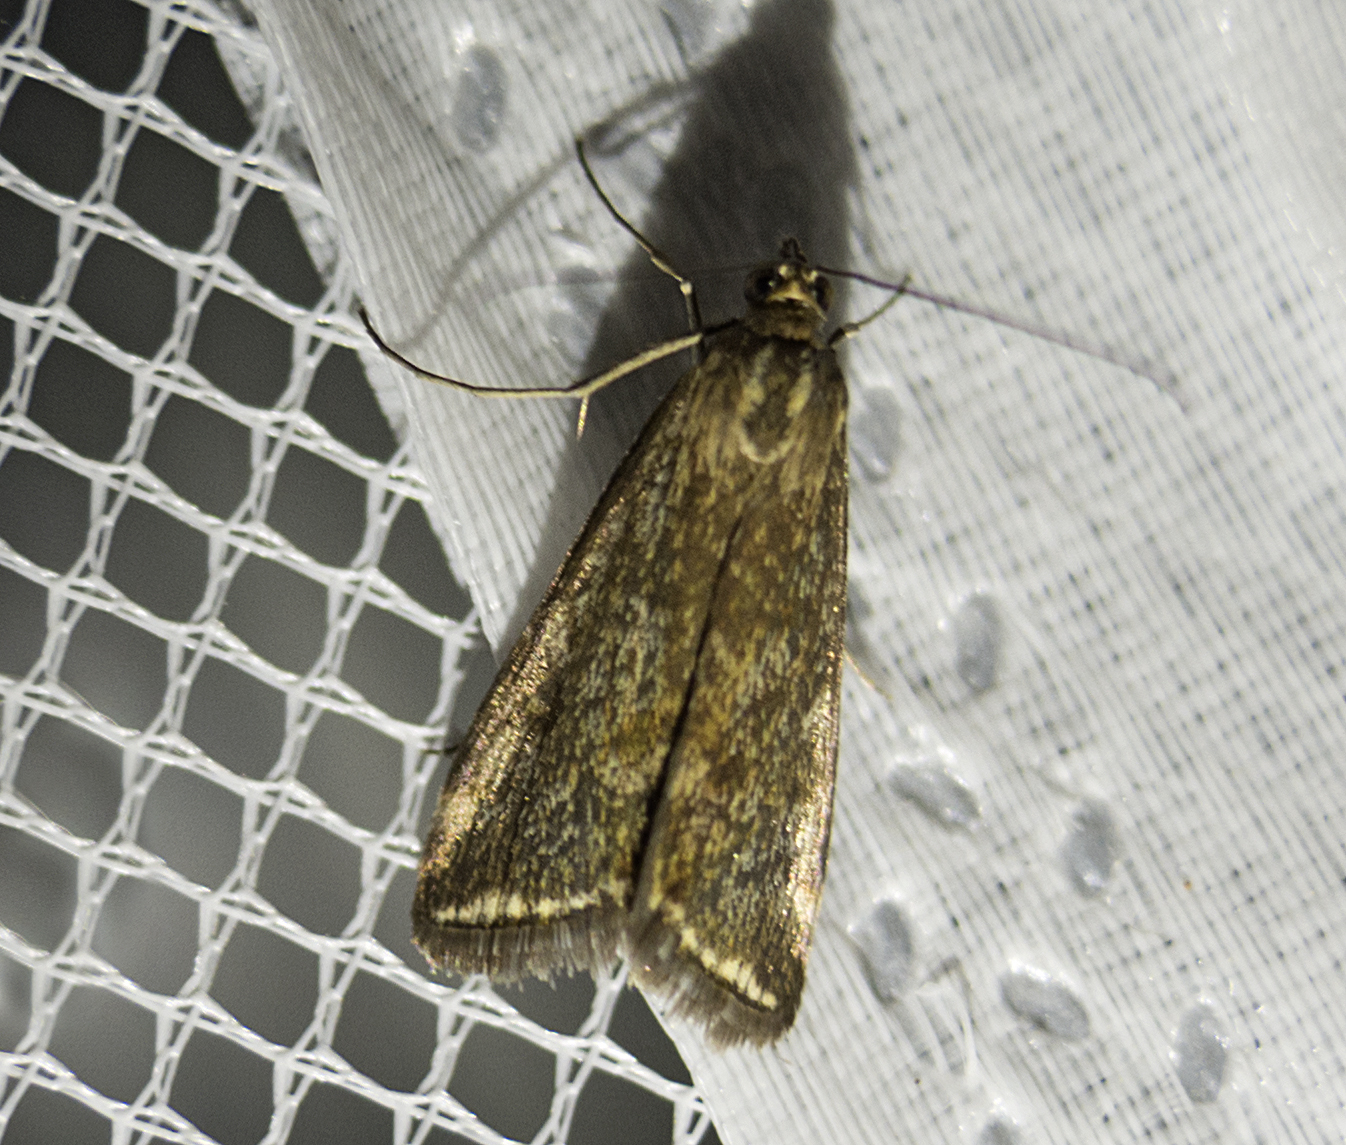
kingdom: Animalia
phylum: Arthropoda
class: Insecta
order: Lepidoptera
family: Crambidae
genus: Loxostege
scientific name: Loxostege sticticalis
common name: Crambid moth
